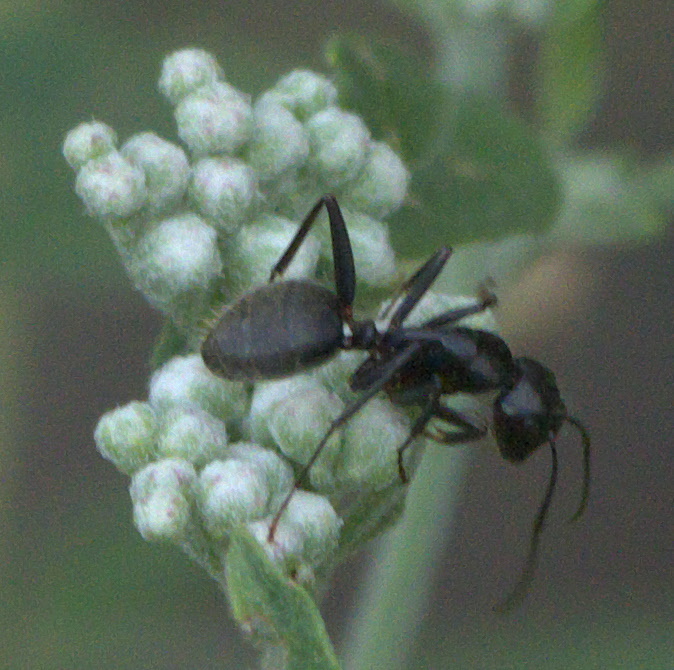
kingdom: Animalia
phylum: Arthropoda
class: Insecta
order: Hymenoptera
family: Formicidae
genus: Camponotus
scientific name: Camponotus pennsylvanicus
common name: Black carpenter ant
